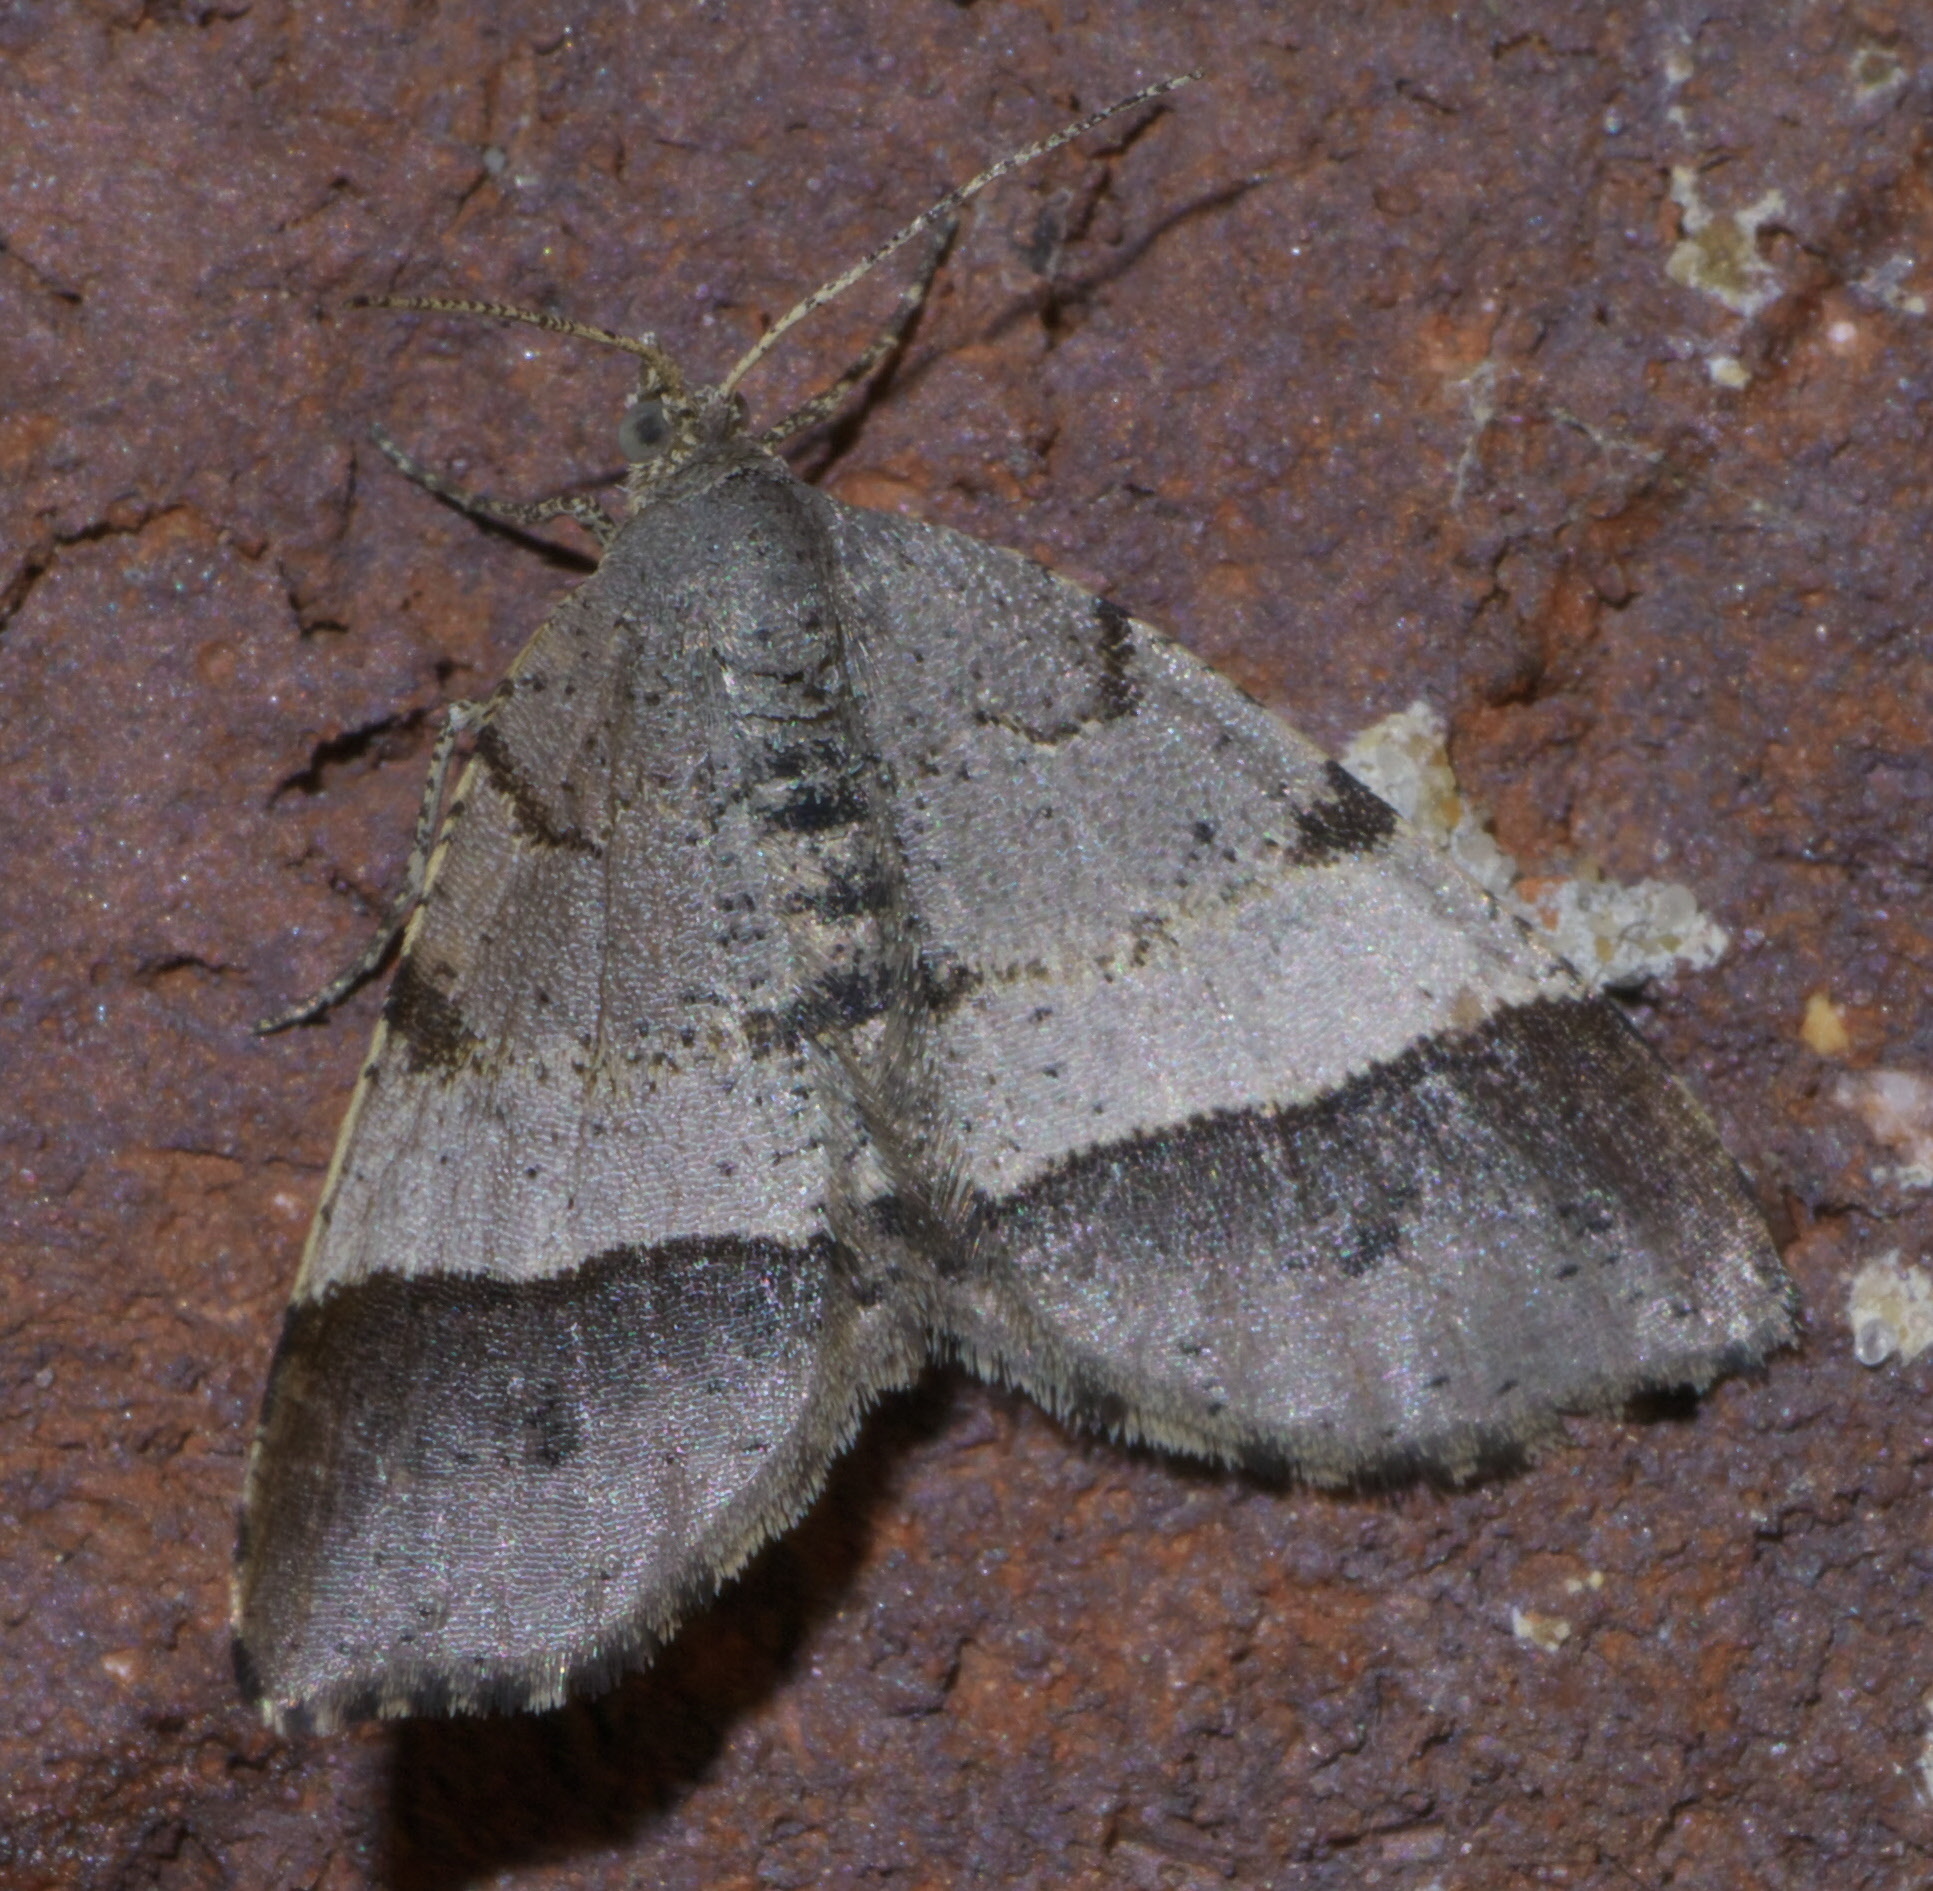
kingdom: Animalia
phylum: Arthropoda
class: Insecta
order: Lepidoptera
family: Geometridae
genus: Mellilla
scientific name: Mellilla xanthometata
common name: Orange wing moth
